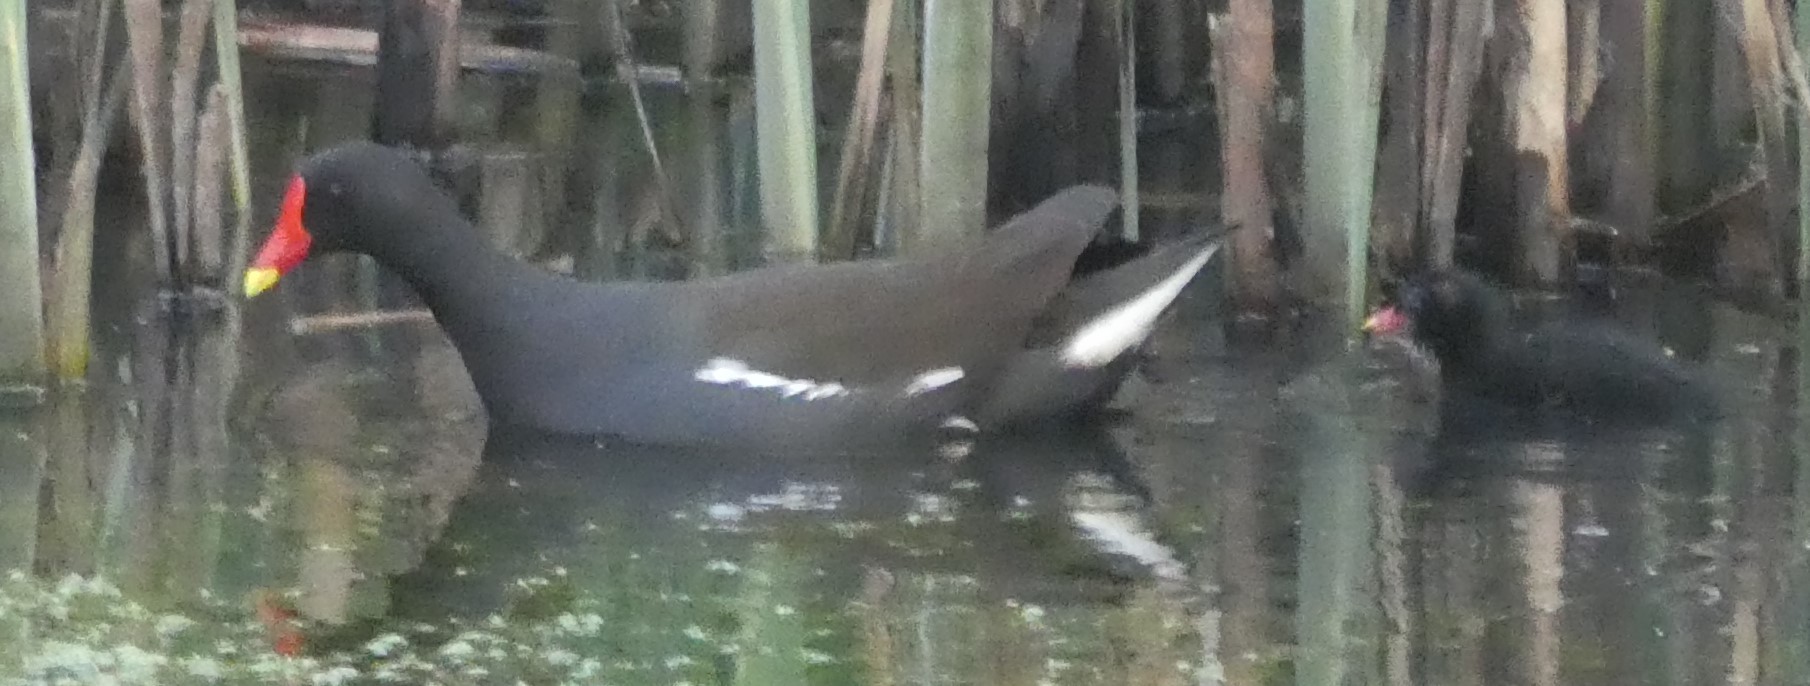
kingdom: Animalia
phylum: Chordata
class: Aves
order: Gruiformes
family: Rallidae
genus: Gallinula
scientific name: Gallinula chloropus
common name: Common moorhen
